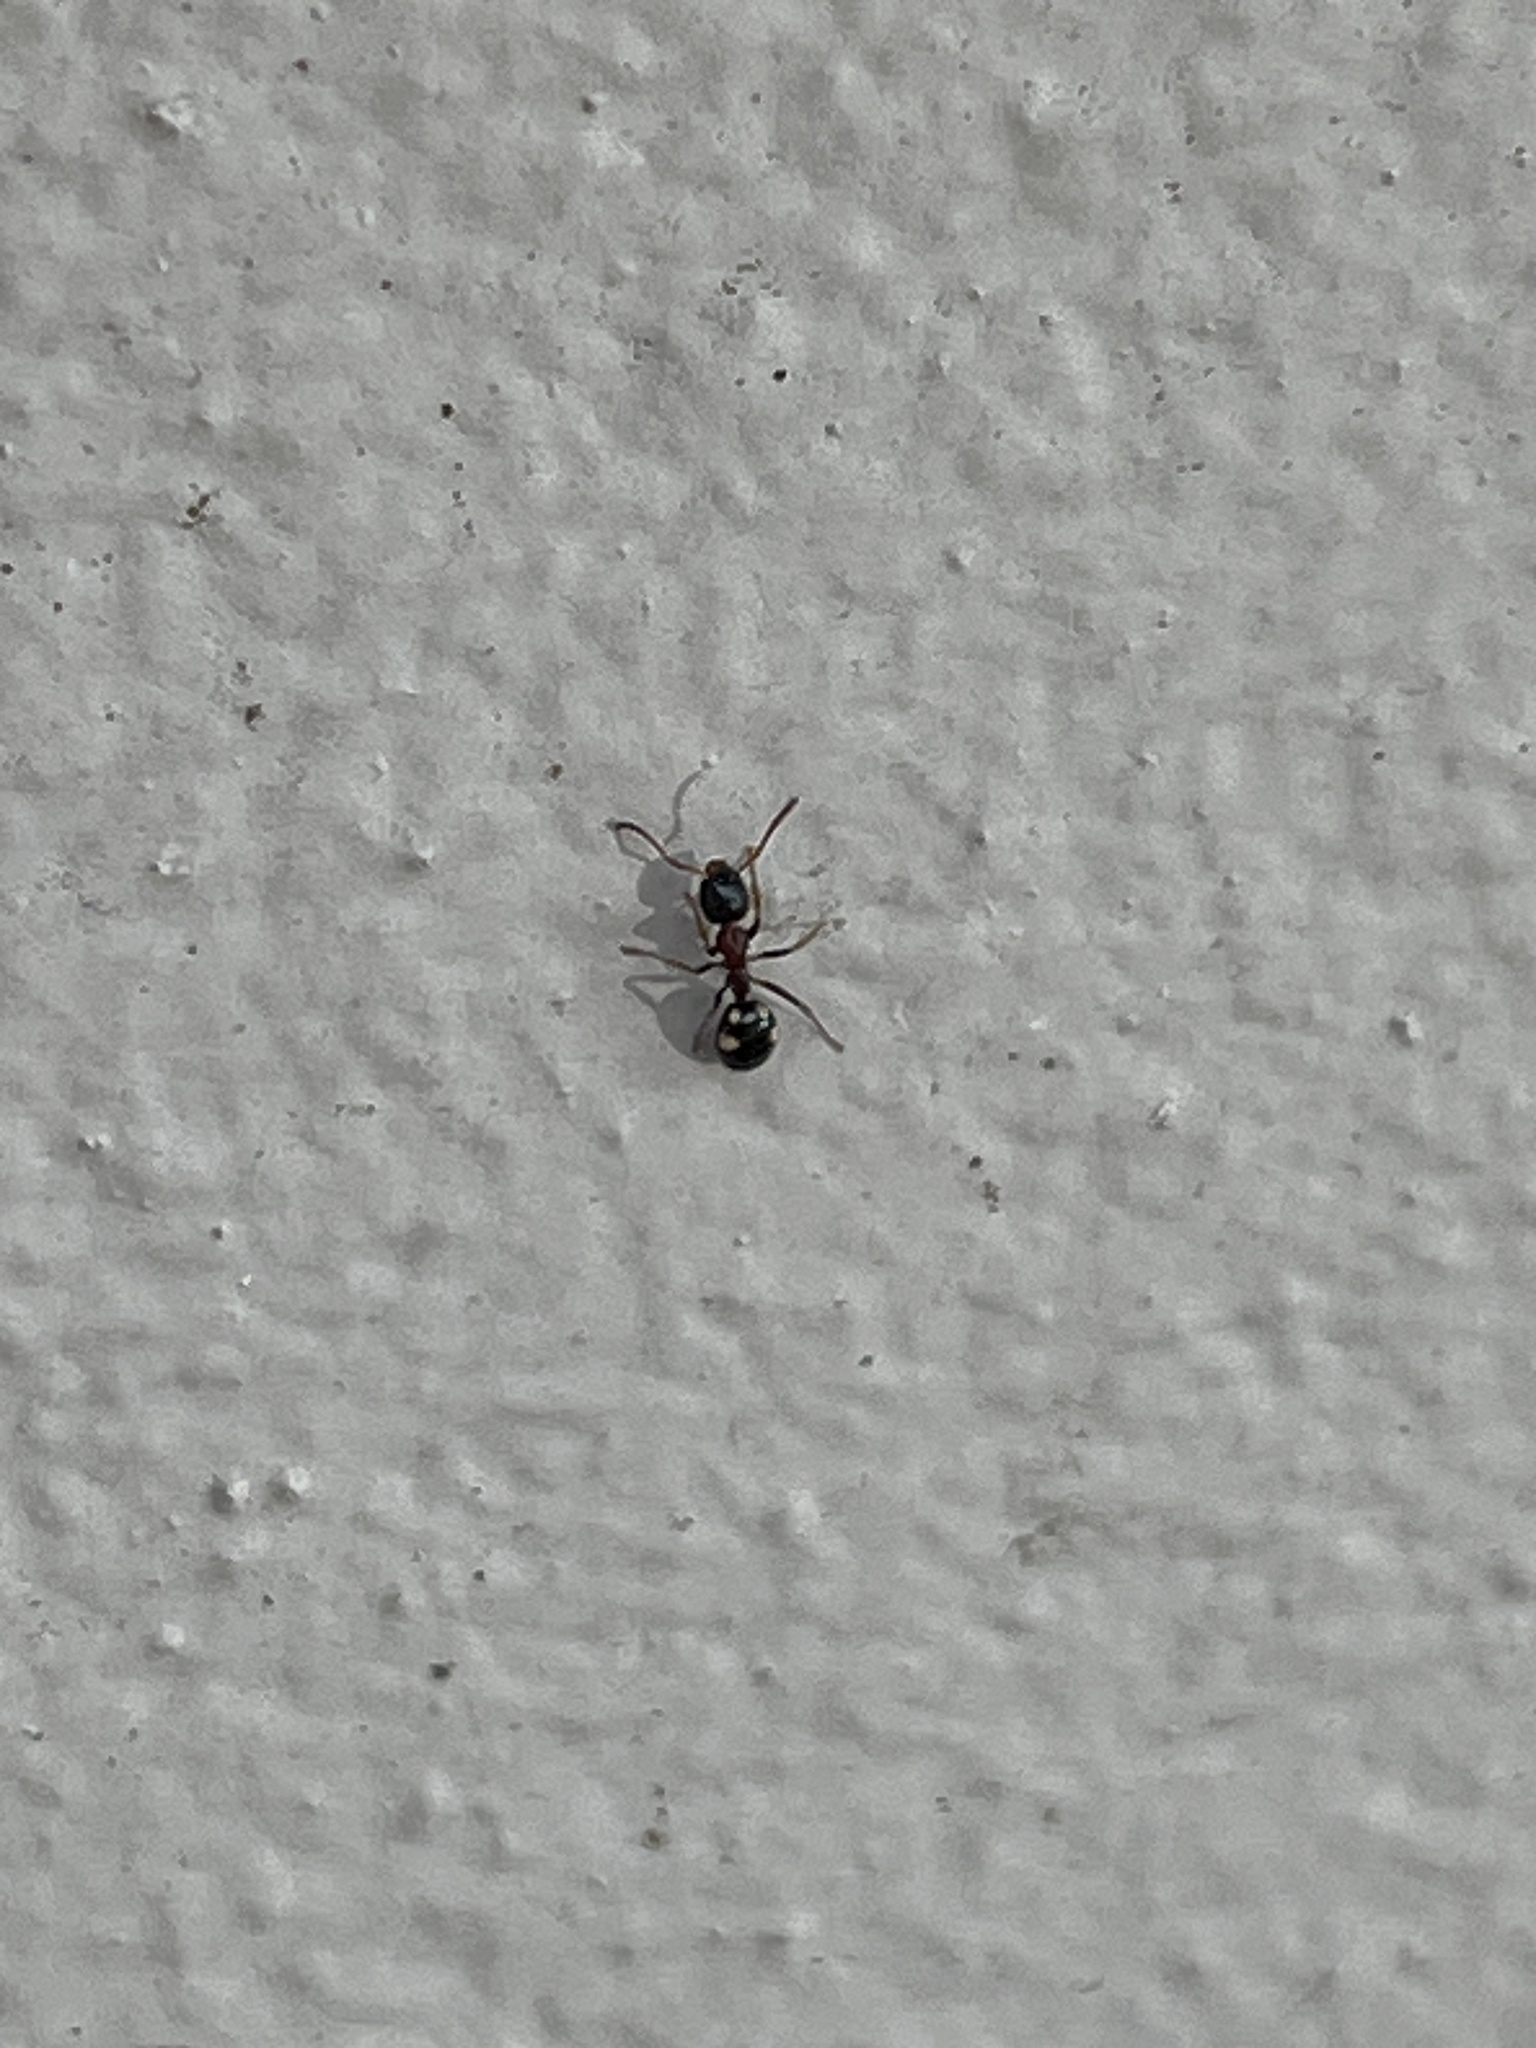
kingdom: Animalia
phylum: Arthropoda
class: Insecta
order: Hymenoptera
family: Formicidae
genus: Dolichoderus
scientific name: Dolichoderus quadripunctatus
